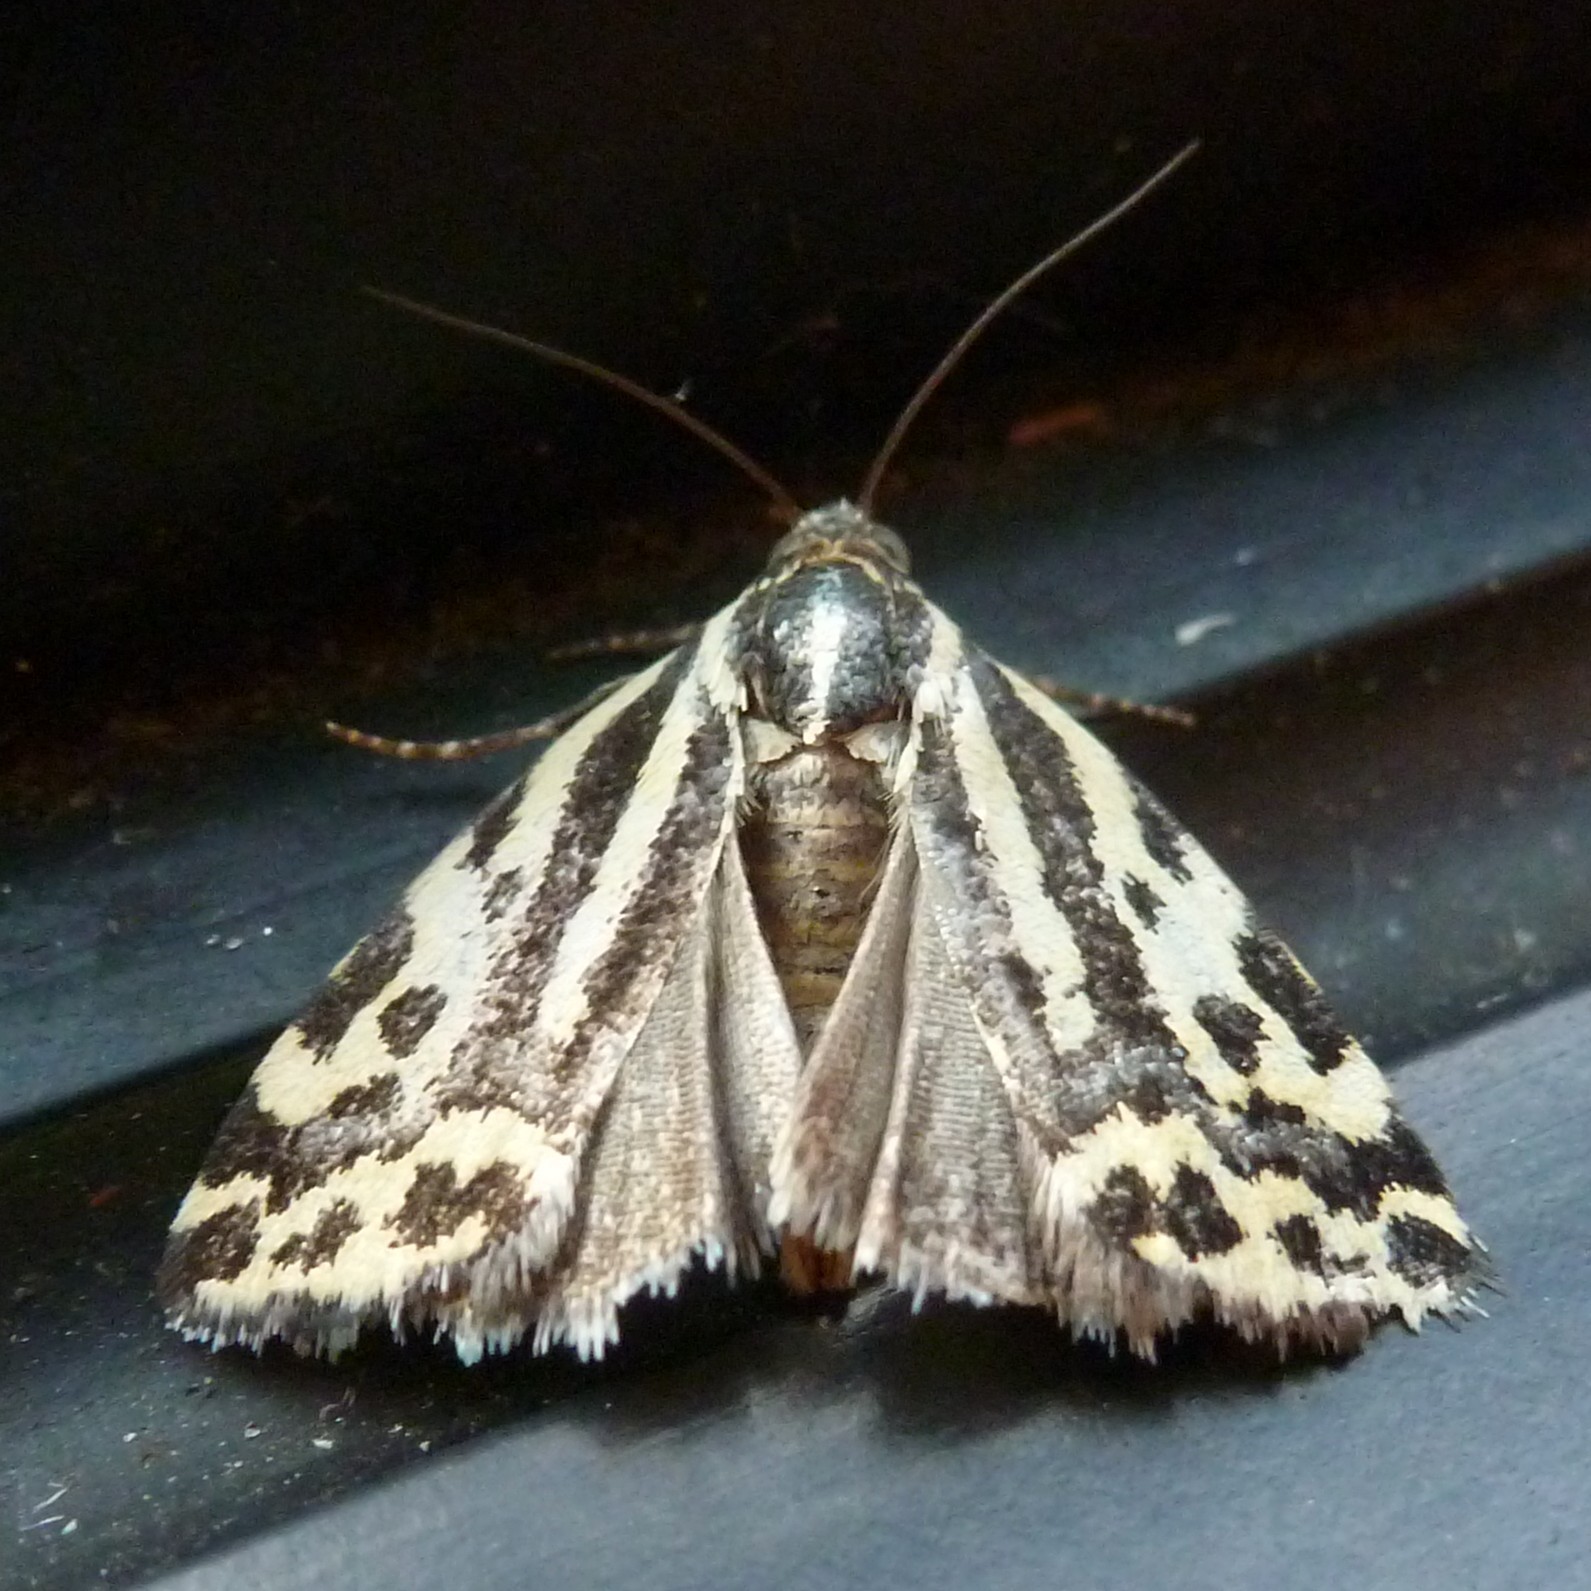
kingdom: Animalia
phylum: Arthropoda
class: Insecta
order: Lepidoptera
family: Noctuidae
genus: Acontia
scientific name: Acontia trabealis
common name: Spotted sulphur
